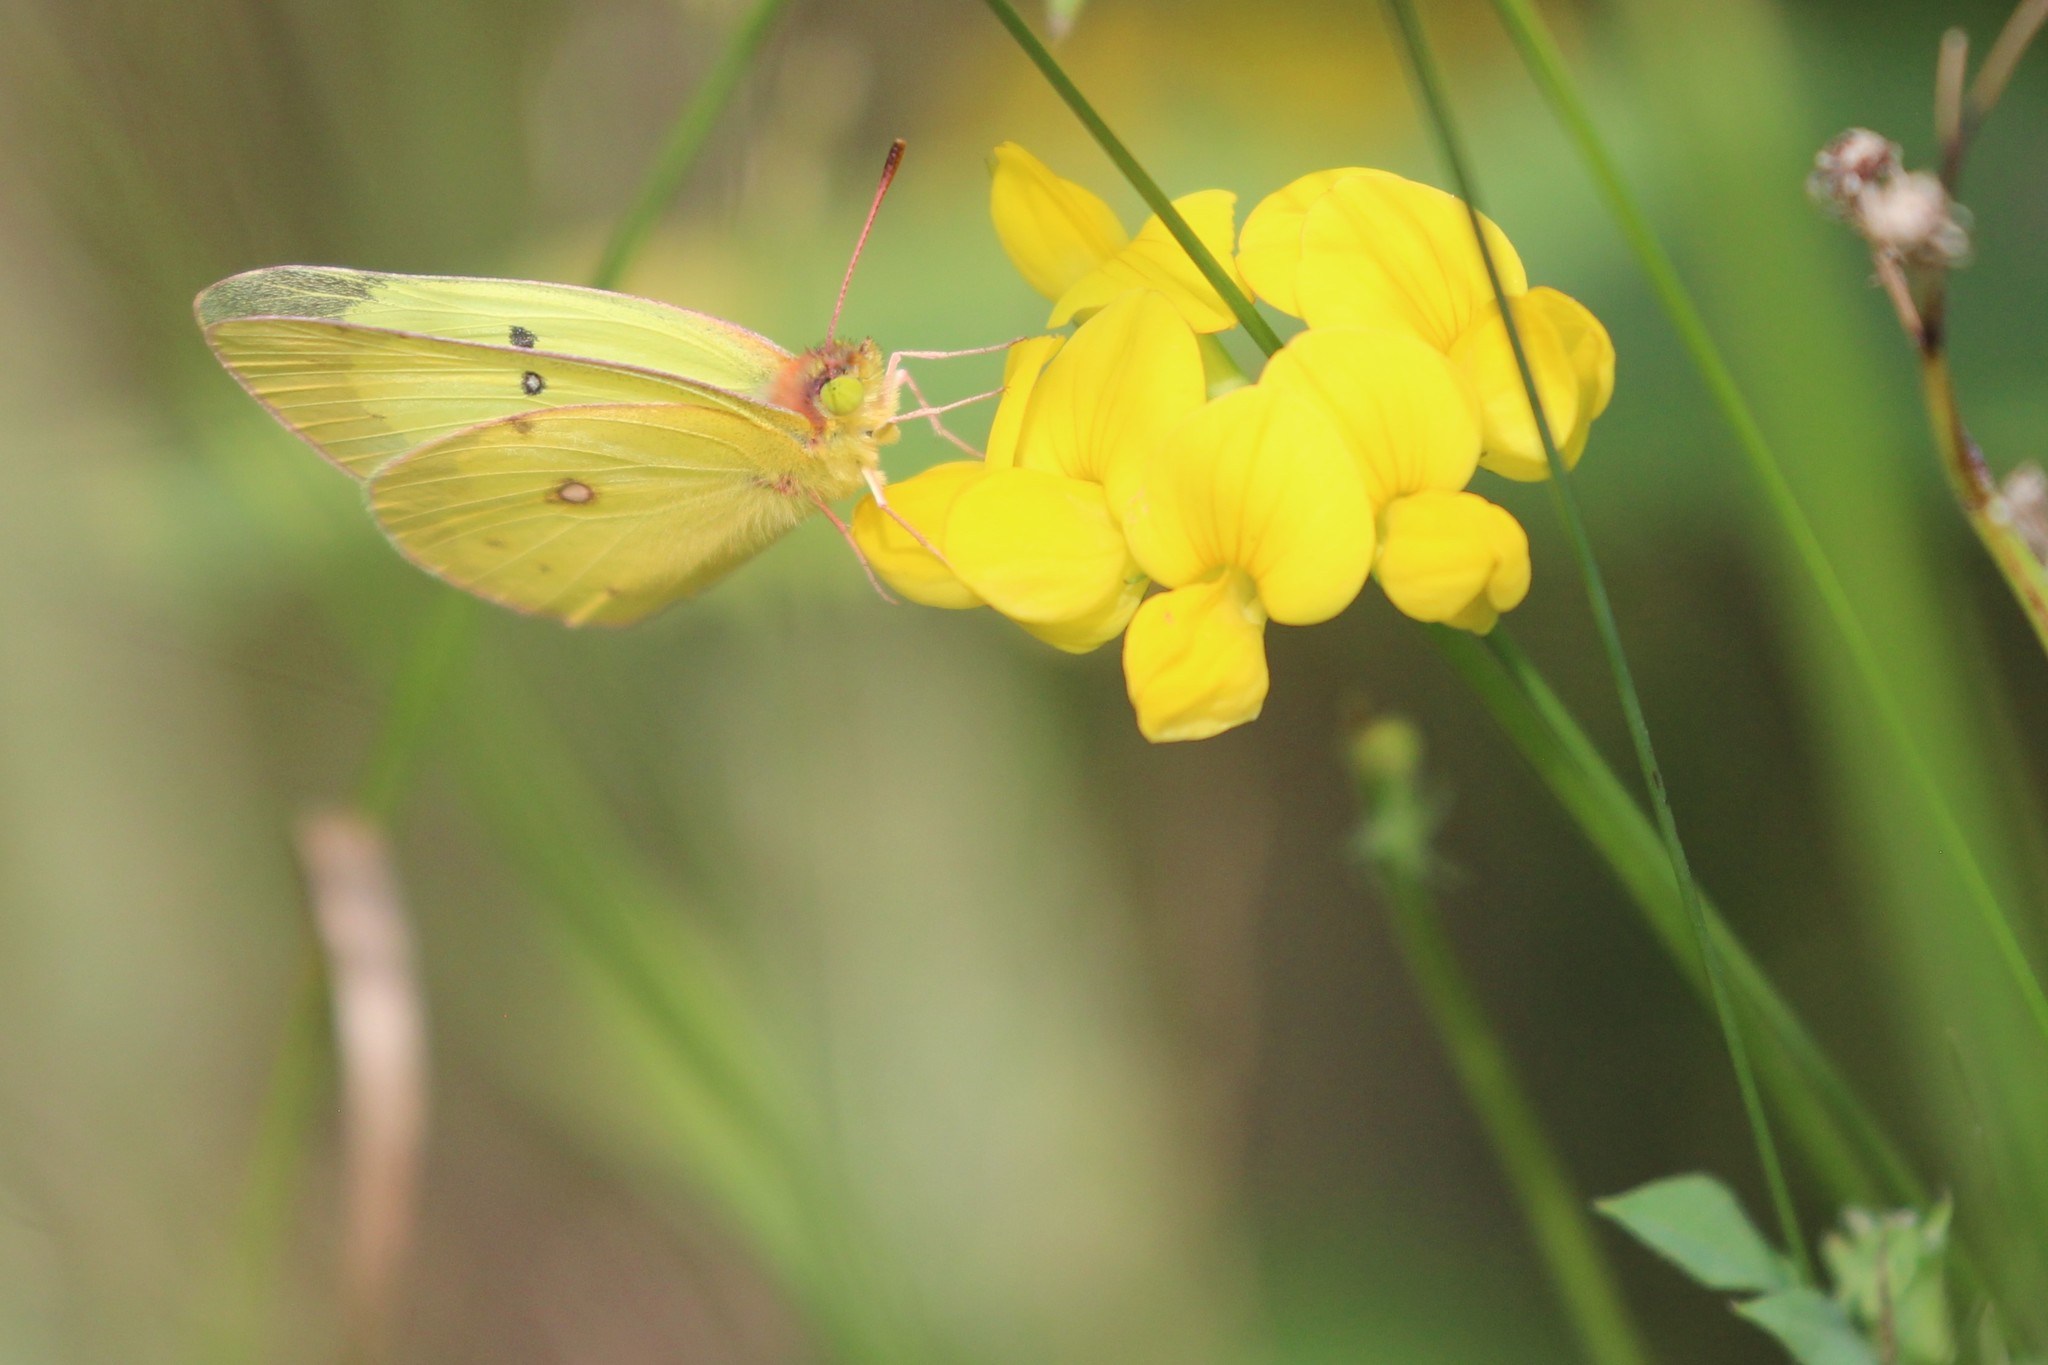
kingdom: Animalia
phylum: Arthropoda
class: Insecta
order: Lepidoptera
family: Pieridae
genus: Colias
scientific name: Colias philodice
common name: Clouded sulphur
